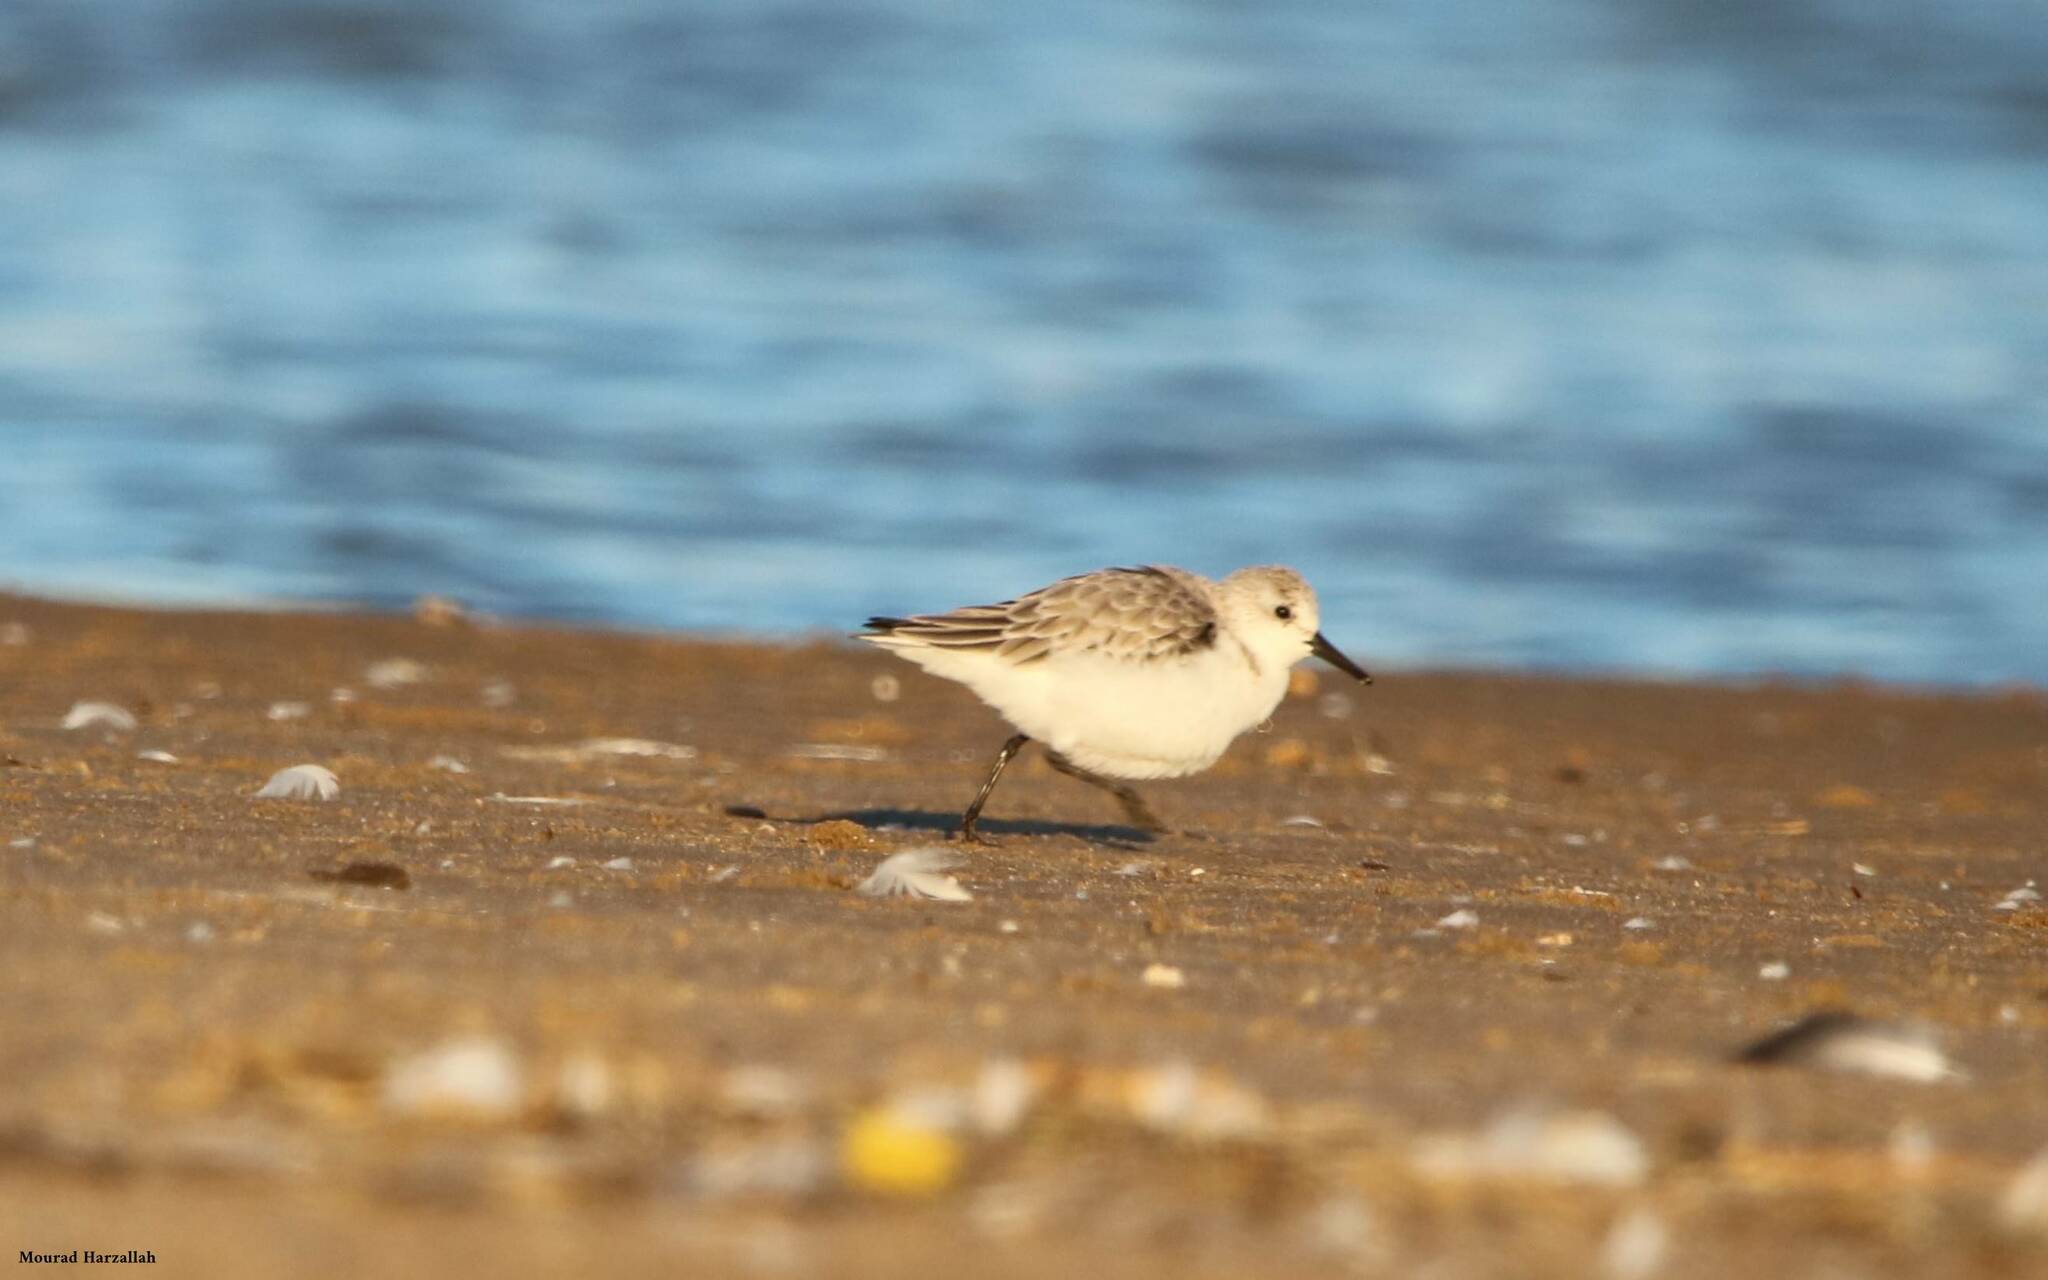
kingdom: Animalia
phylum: Chordata
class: Aves
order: Charadriiformes
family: Scolopacidae
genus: Calidris
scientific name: Calidris alba
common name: Sanderling
